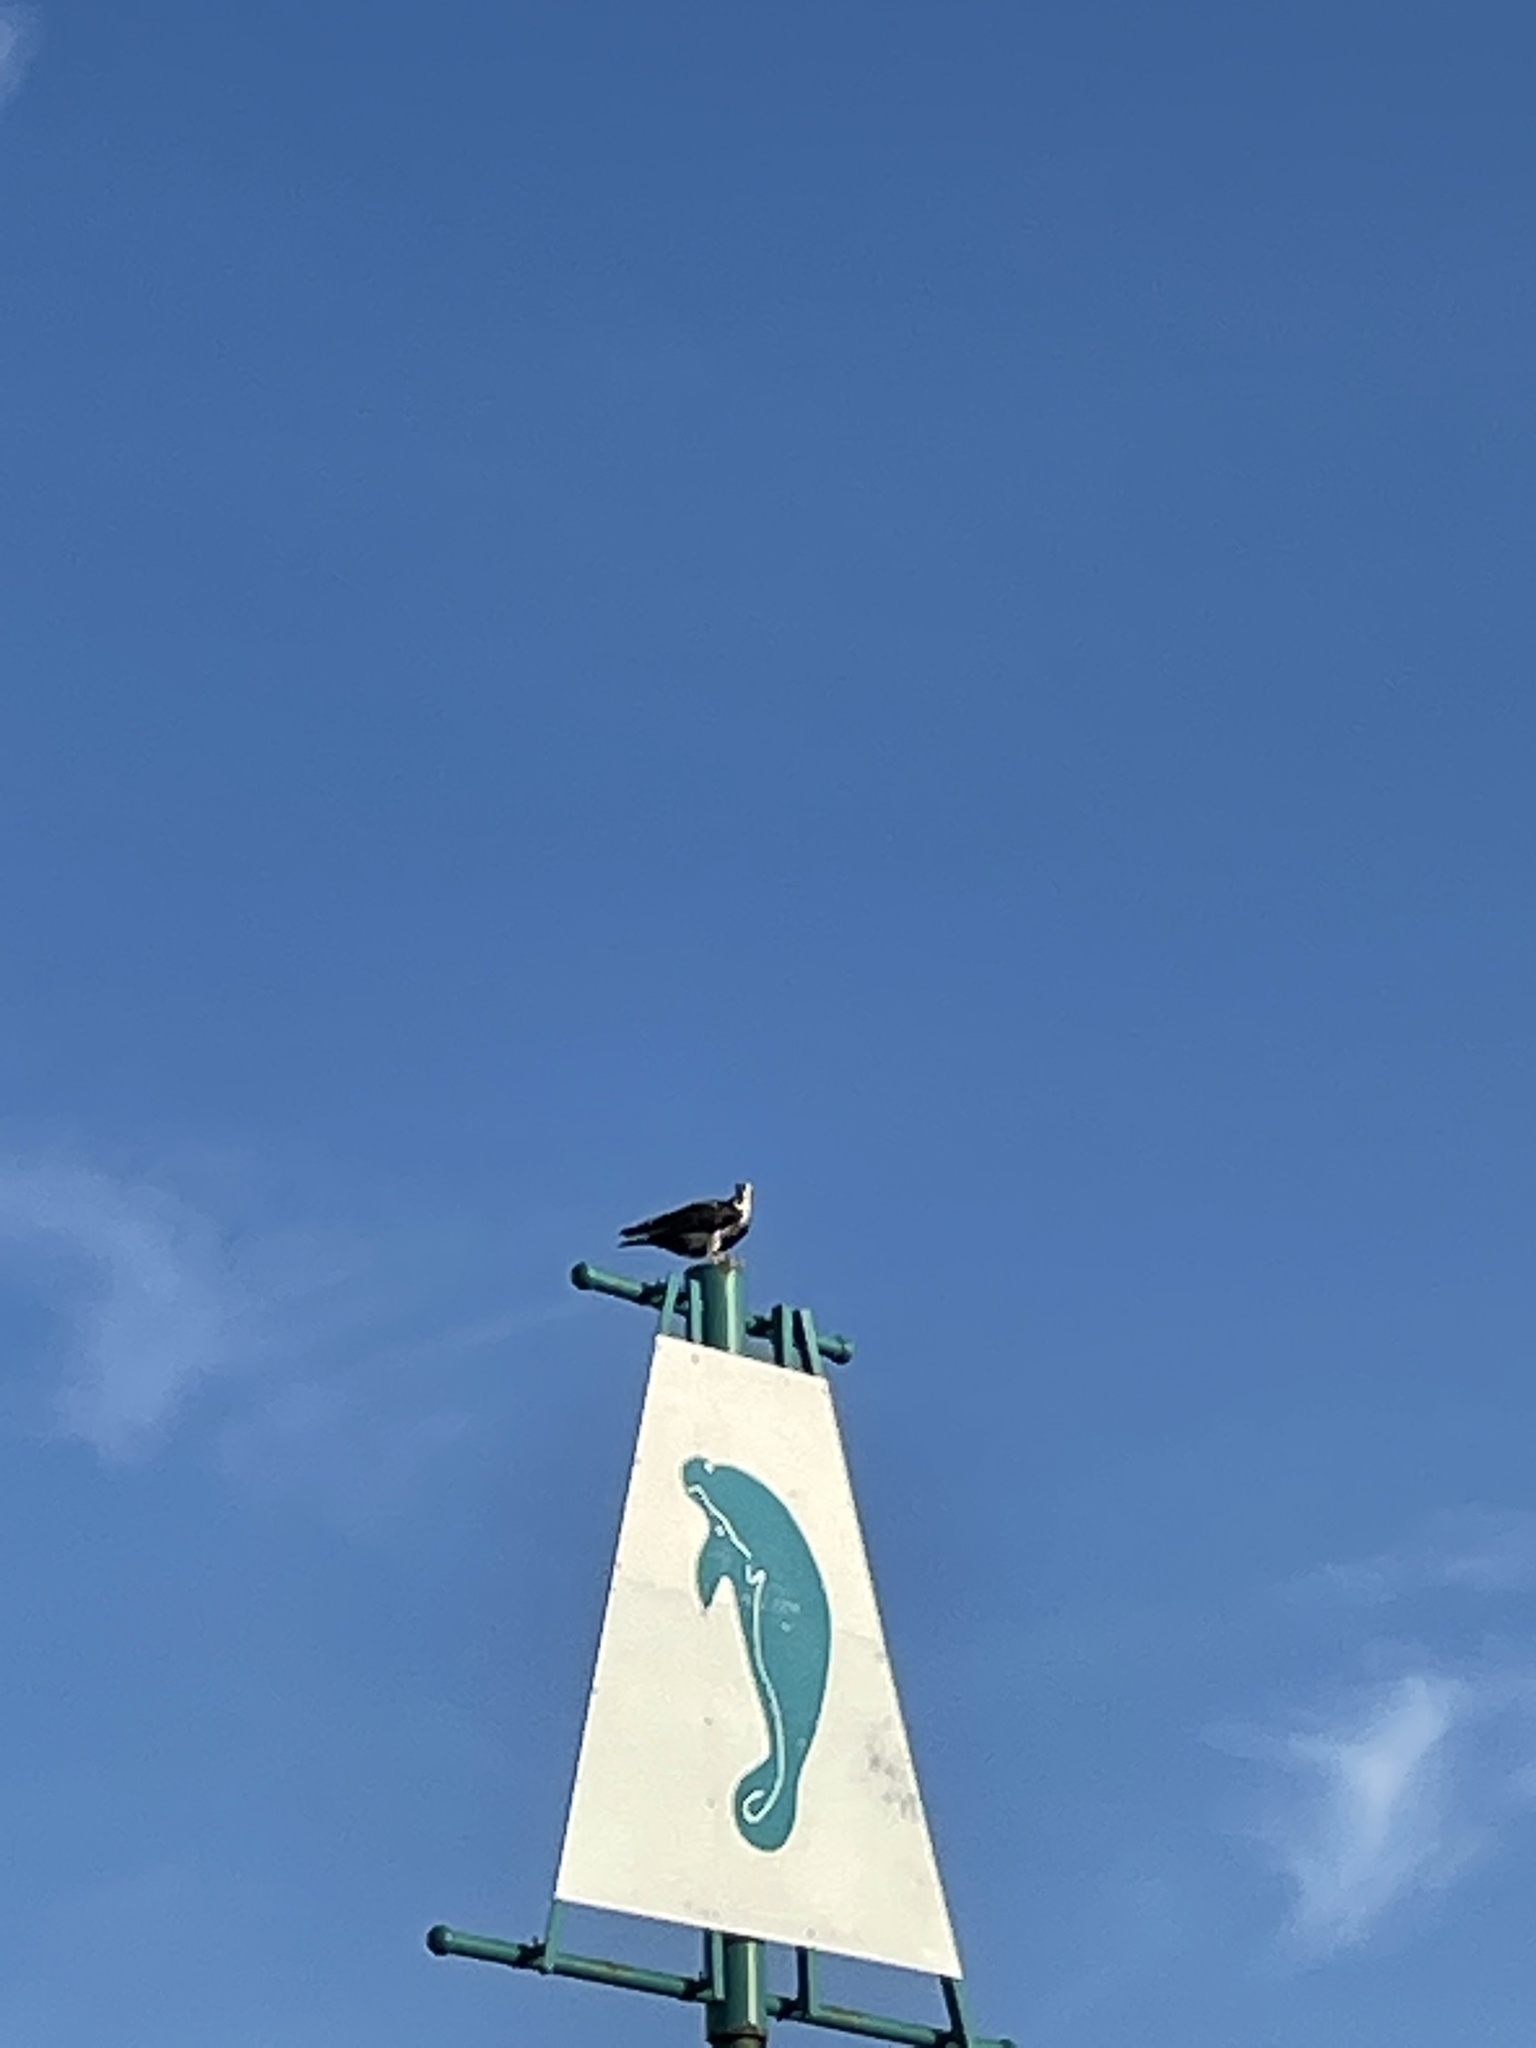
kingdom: Animalia
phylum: Chordata
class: Aves
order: Accipitriformes
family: Pandionidae
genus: Pandion
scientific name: Pandion haliaetus
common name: Osprey
